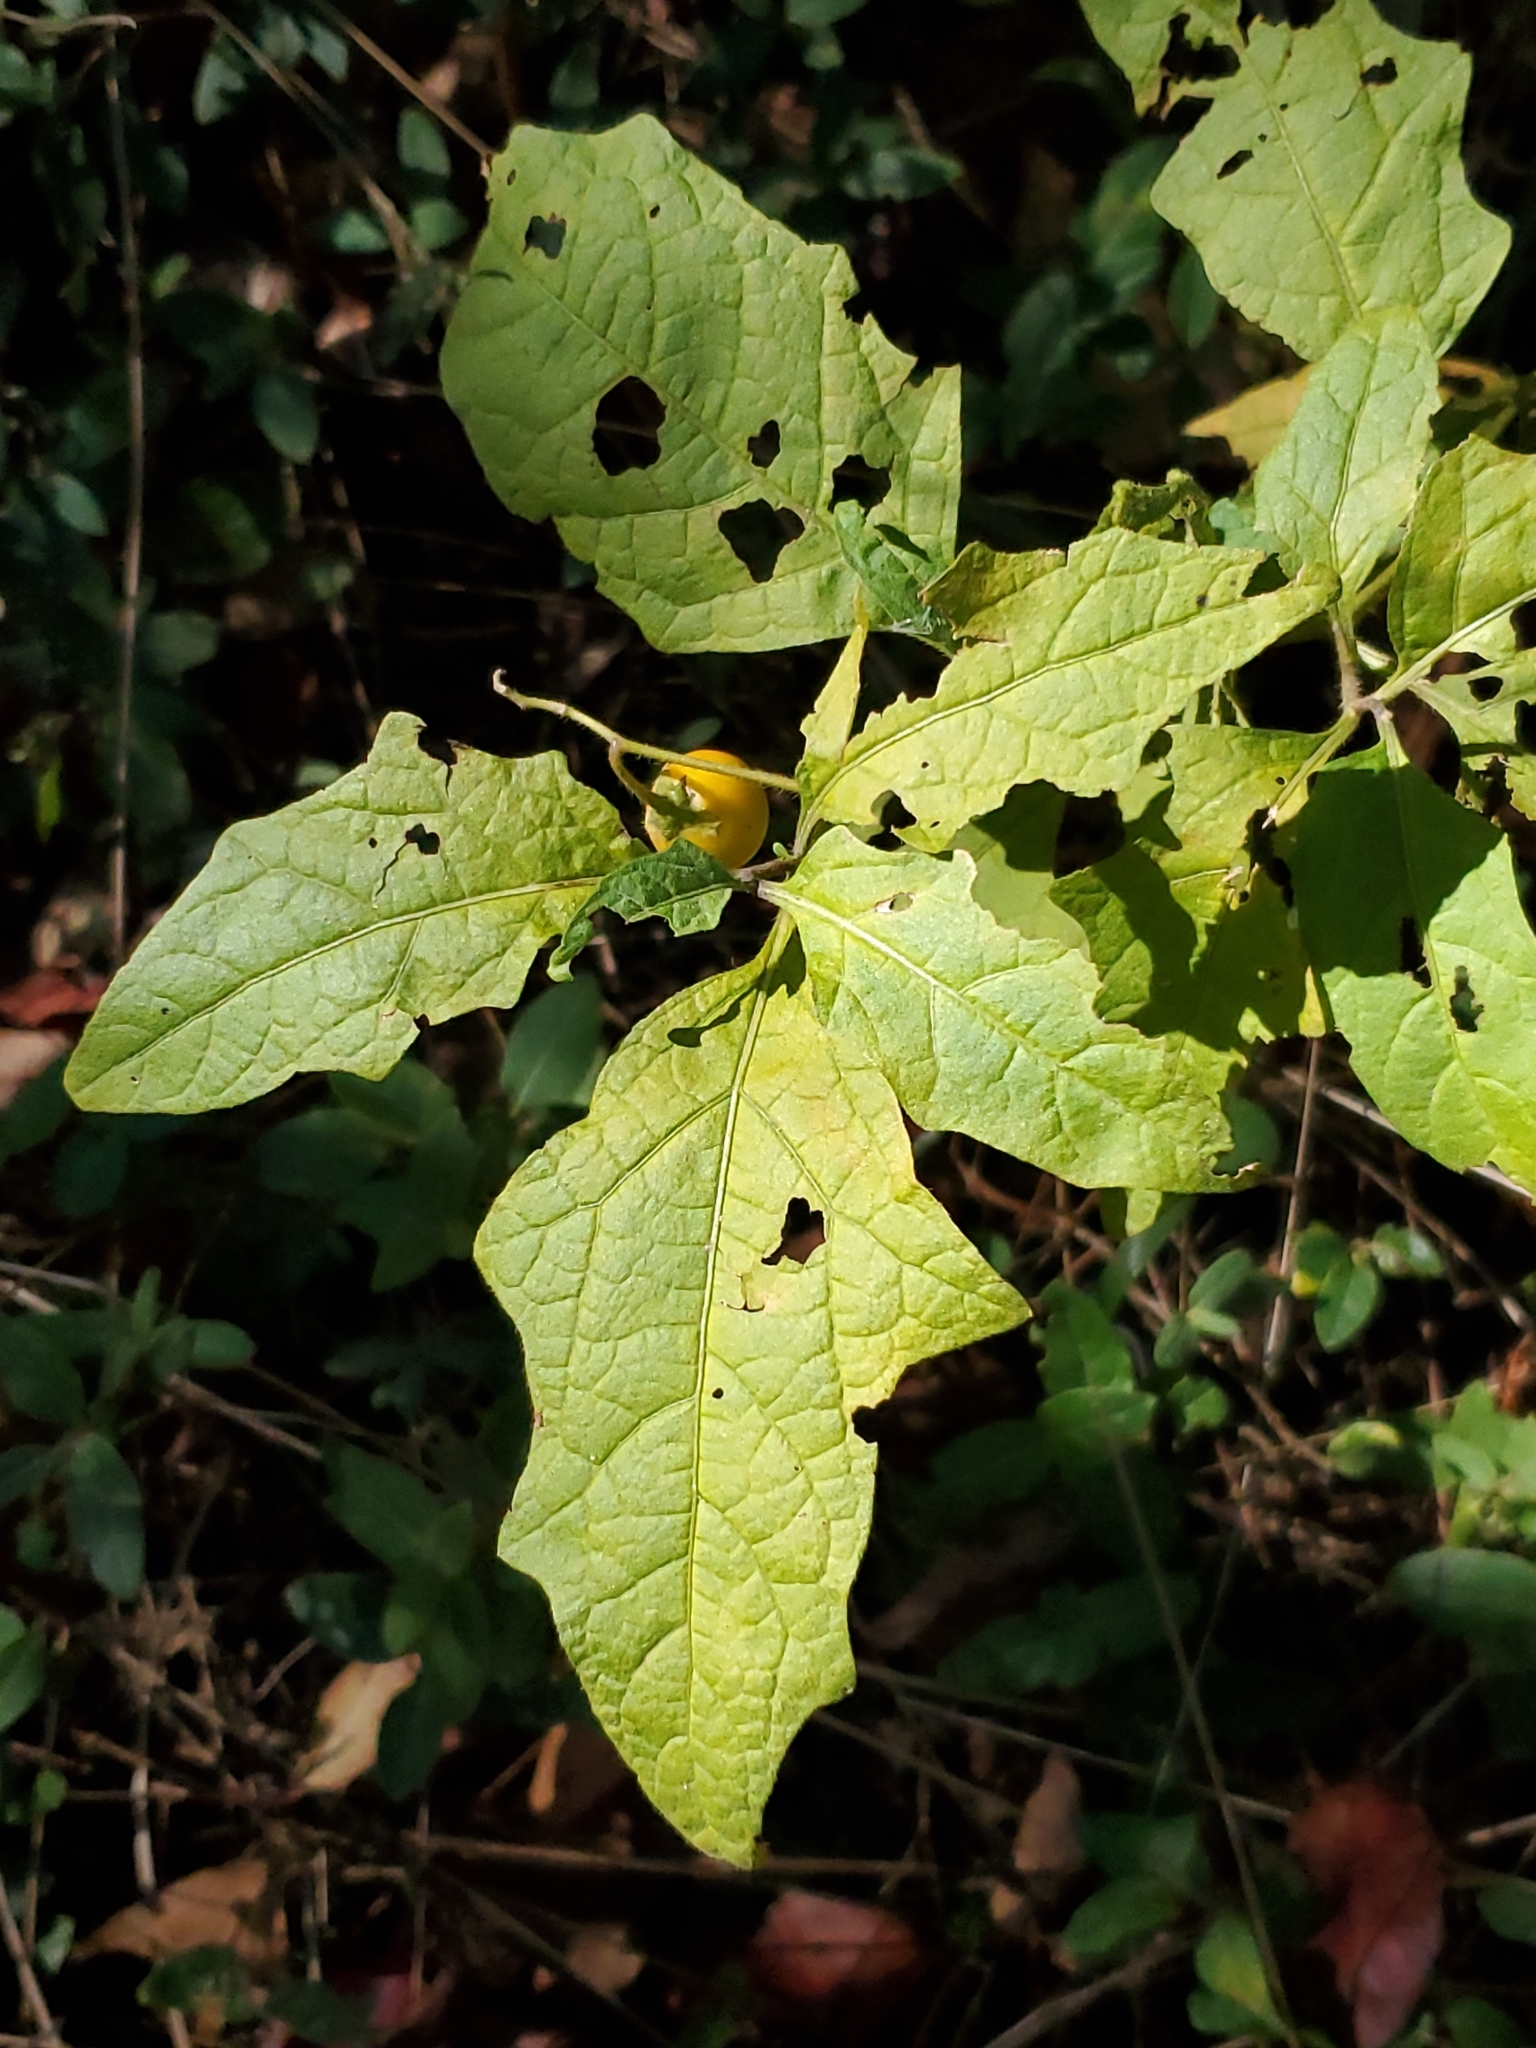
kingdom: Plantae
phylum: Tracheophyta
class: Magnoliopsida
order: Solanales
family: Solanaceae
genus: Solanum
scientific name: Solanum carolinense
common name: Horse-nettle
